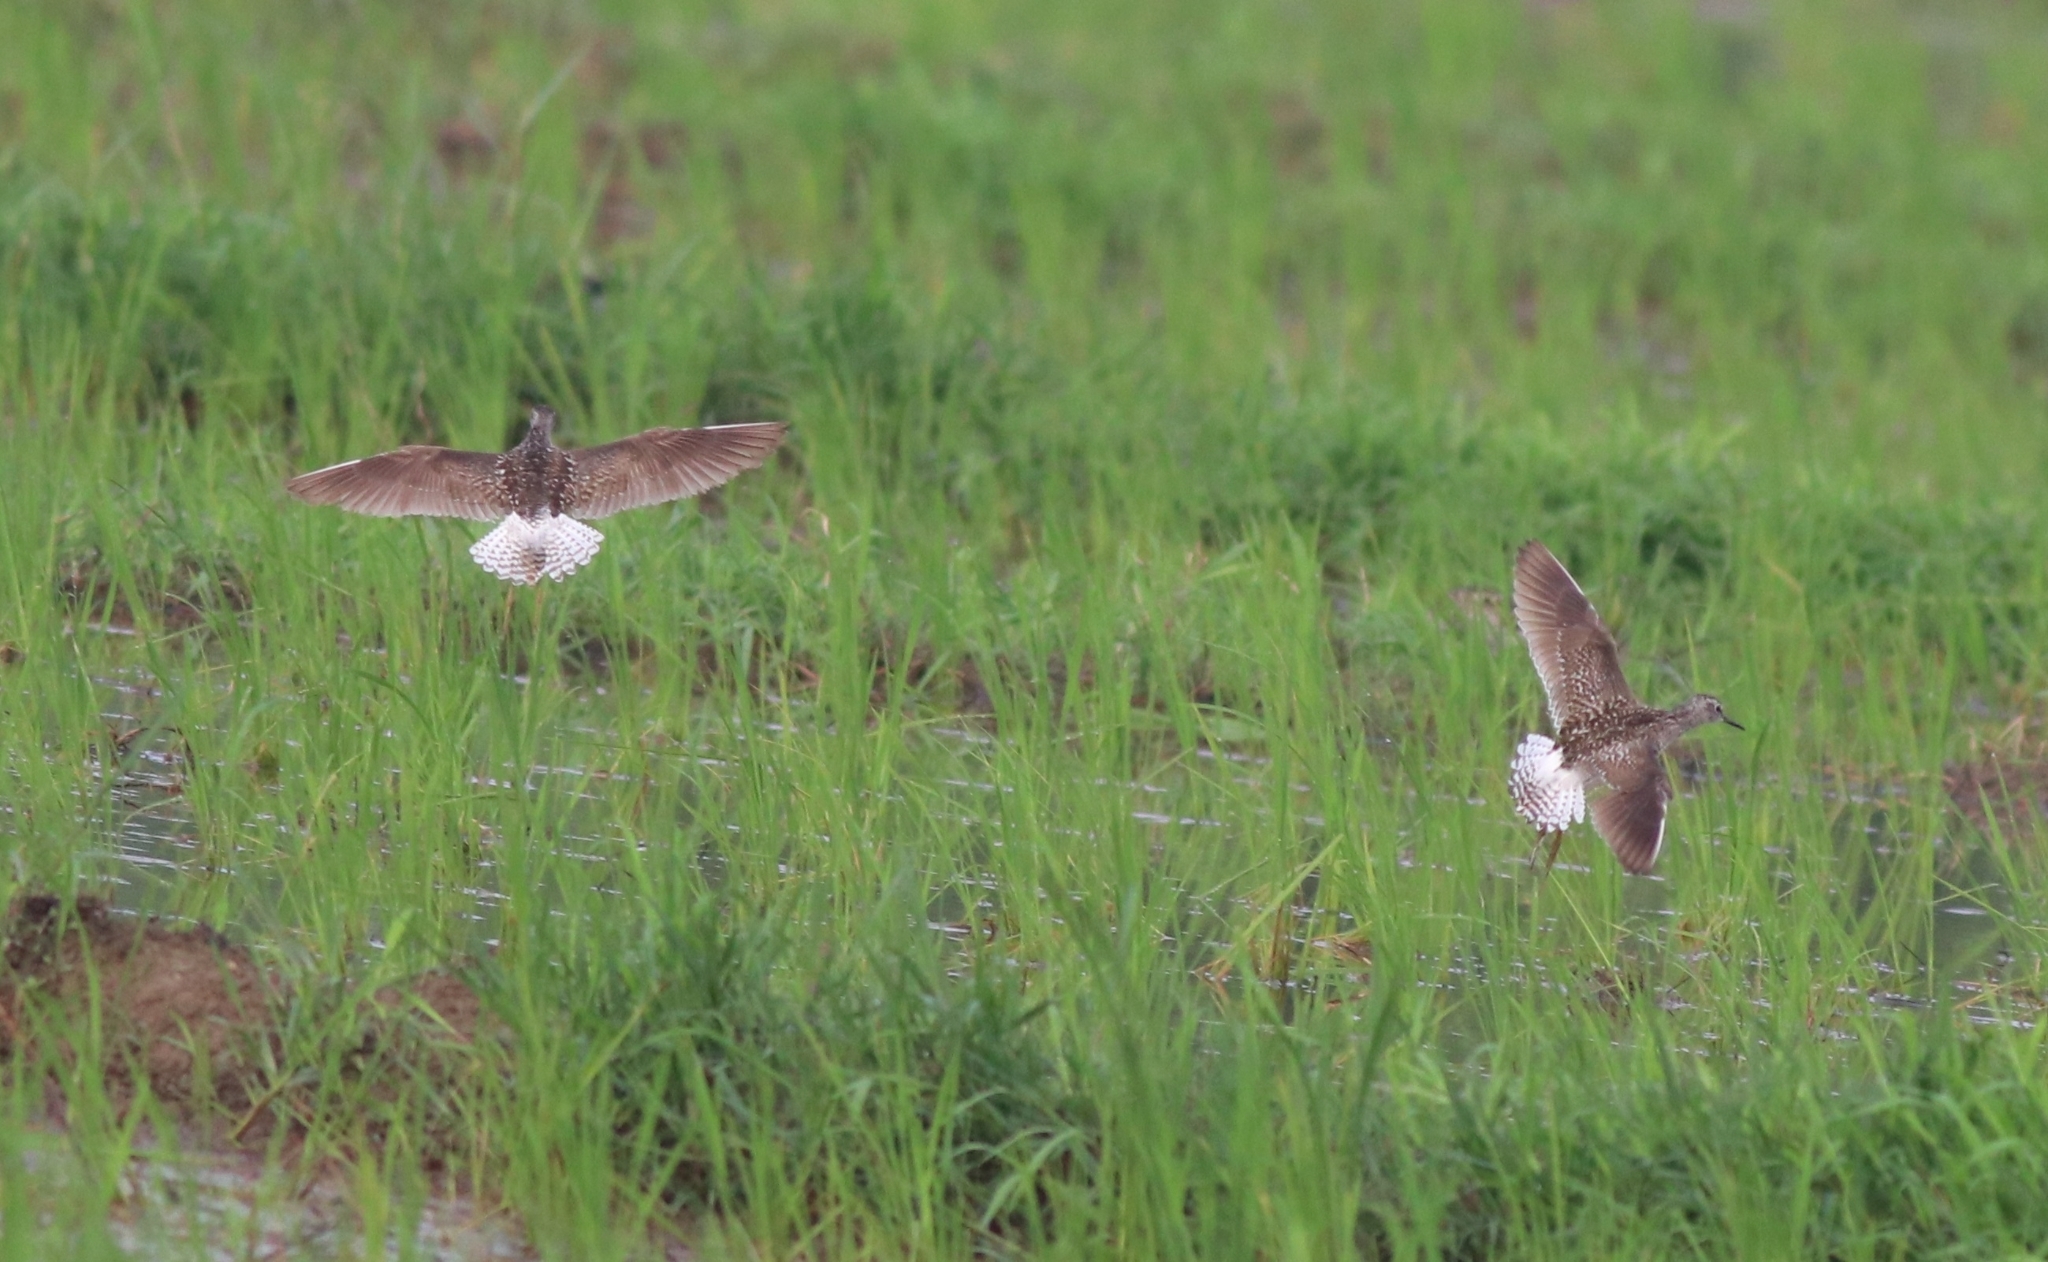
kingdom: Animalia
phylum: Chordata
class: Aves
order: Charadriiformes
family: Scolopacidae
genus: Tringa
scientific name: Tringa glareola
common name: Wood sandpiper
